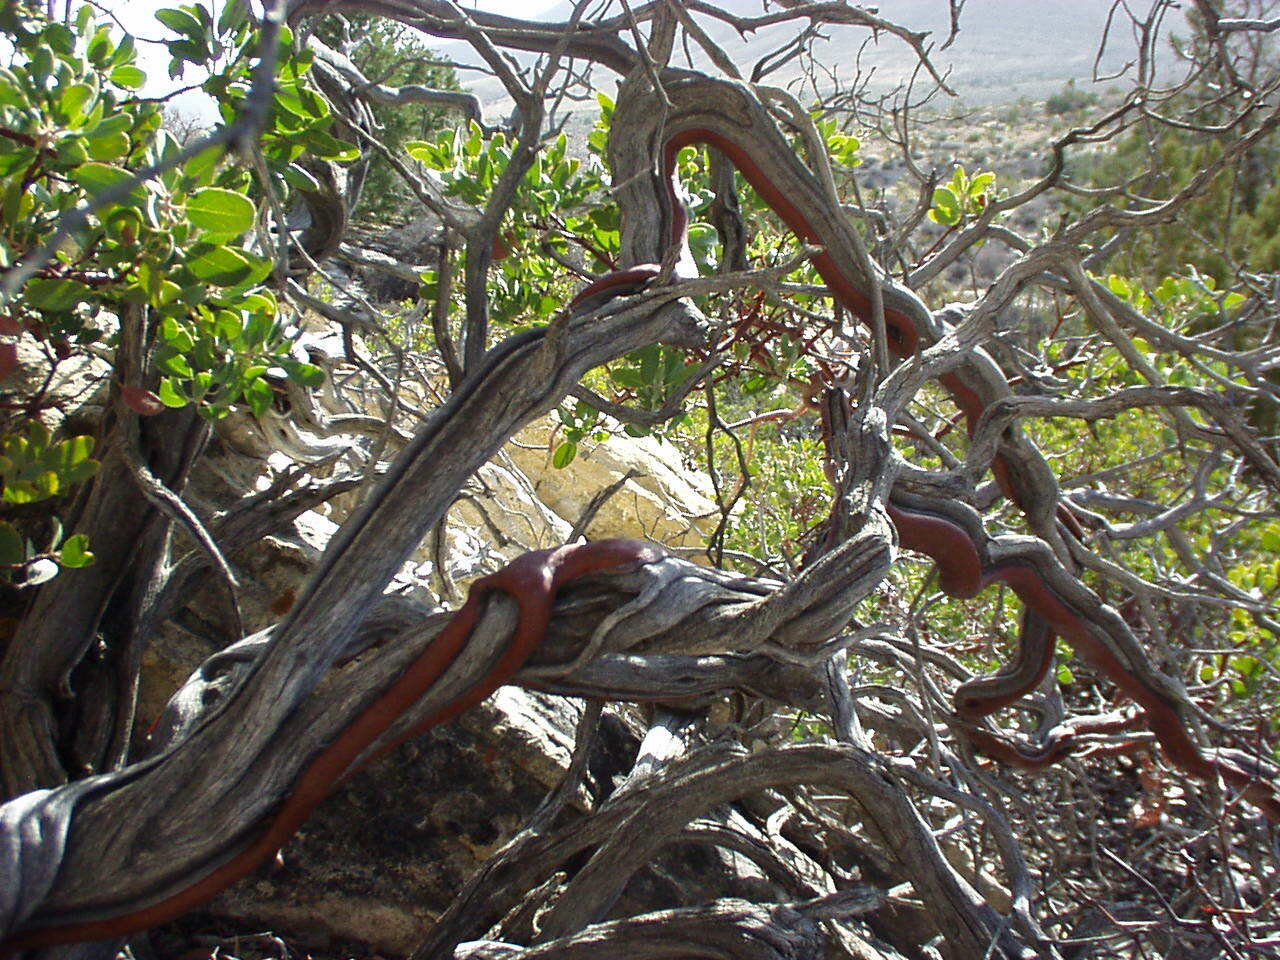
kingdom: Plantae
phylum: Tracheophyta
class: Magnoliopsida
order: Ericales
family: Ericaceae
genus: Arctostaphylos
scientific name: Arctostaphylos pungens
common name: Mexican manzanita
